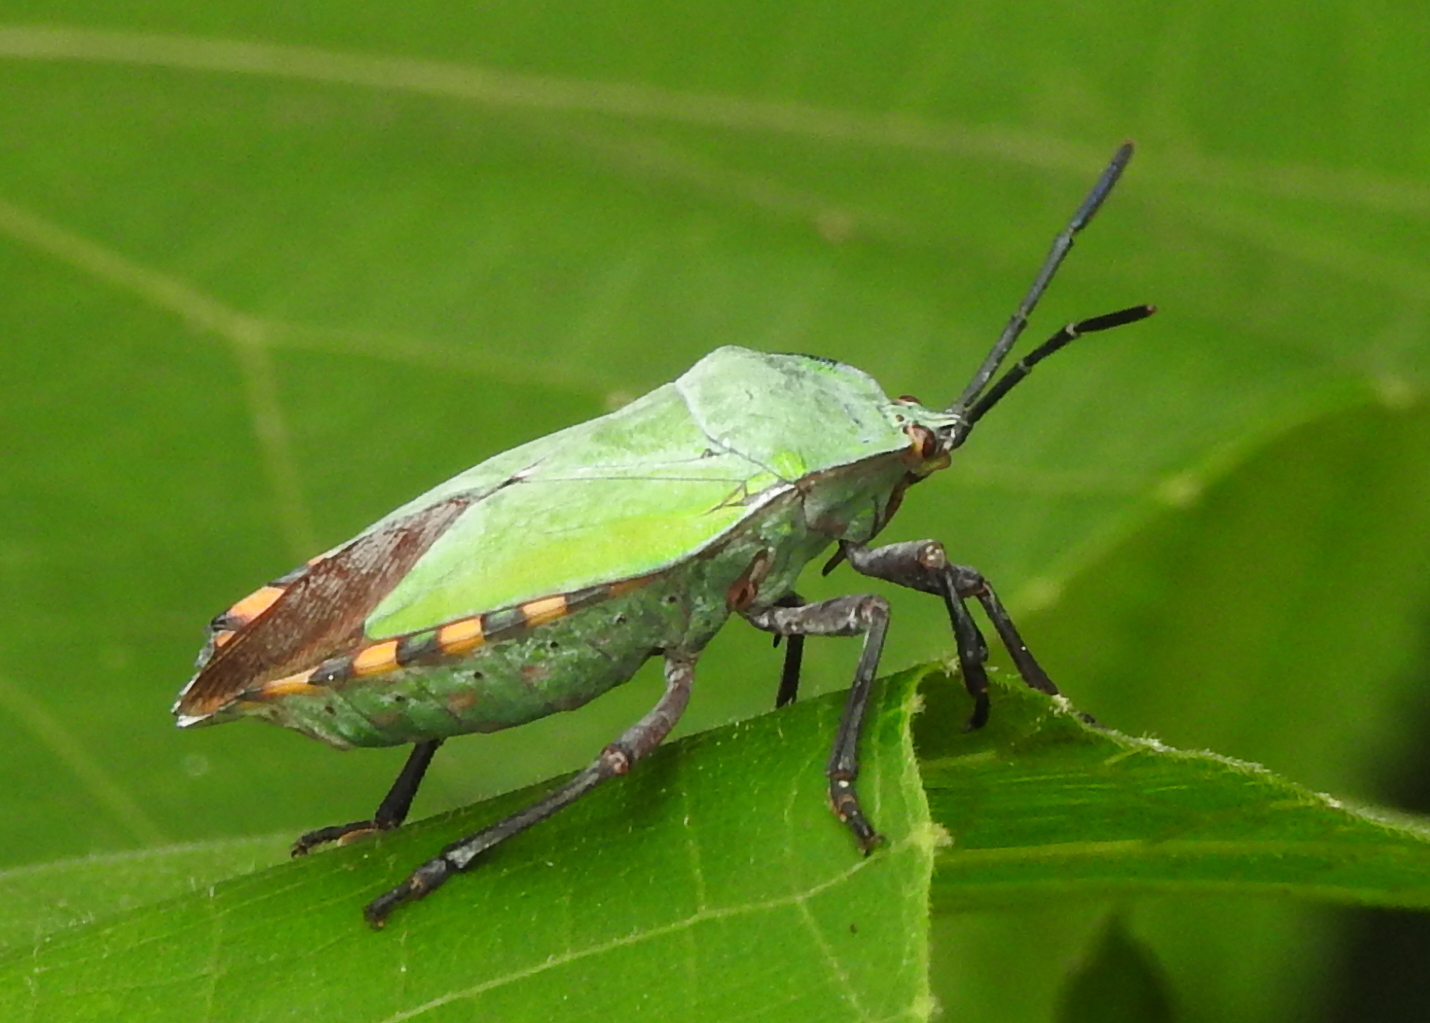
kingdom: Animalia
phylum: Arthropoda
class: Insecta
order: Hemiptera
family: Tessaratomidae
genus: Pycanum
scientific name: Pycanum alternatum
